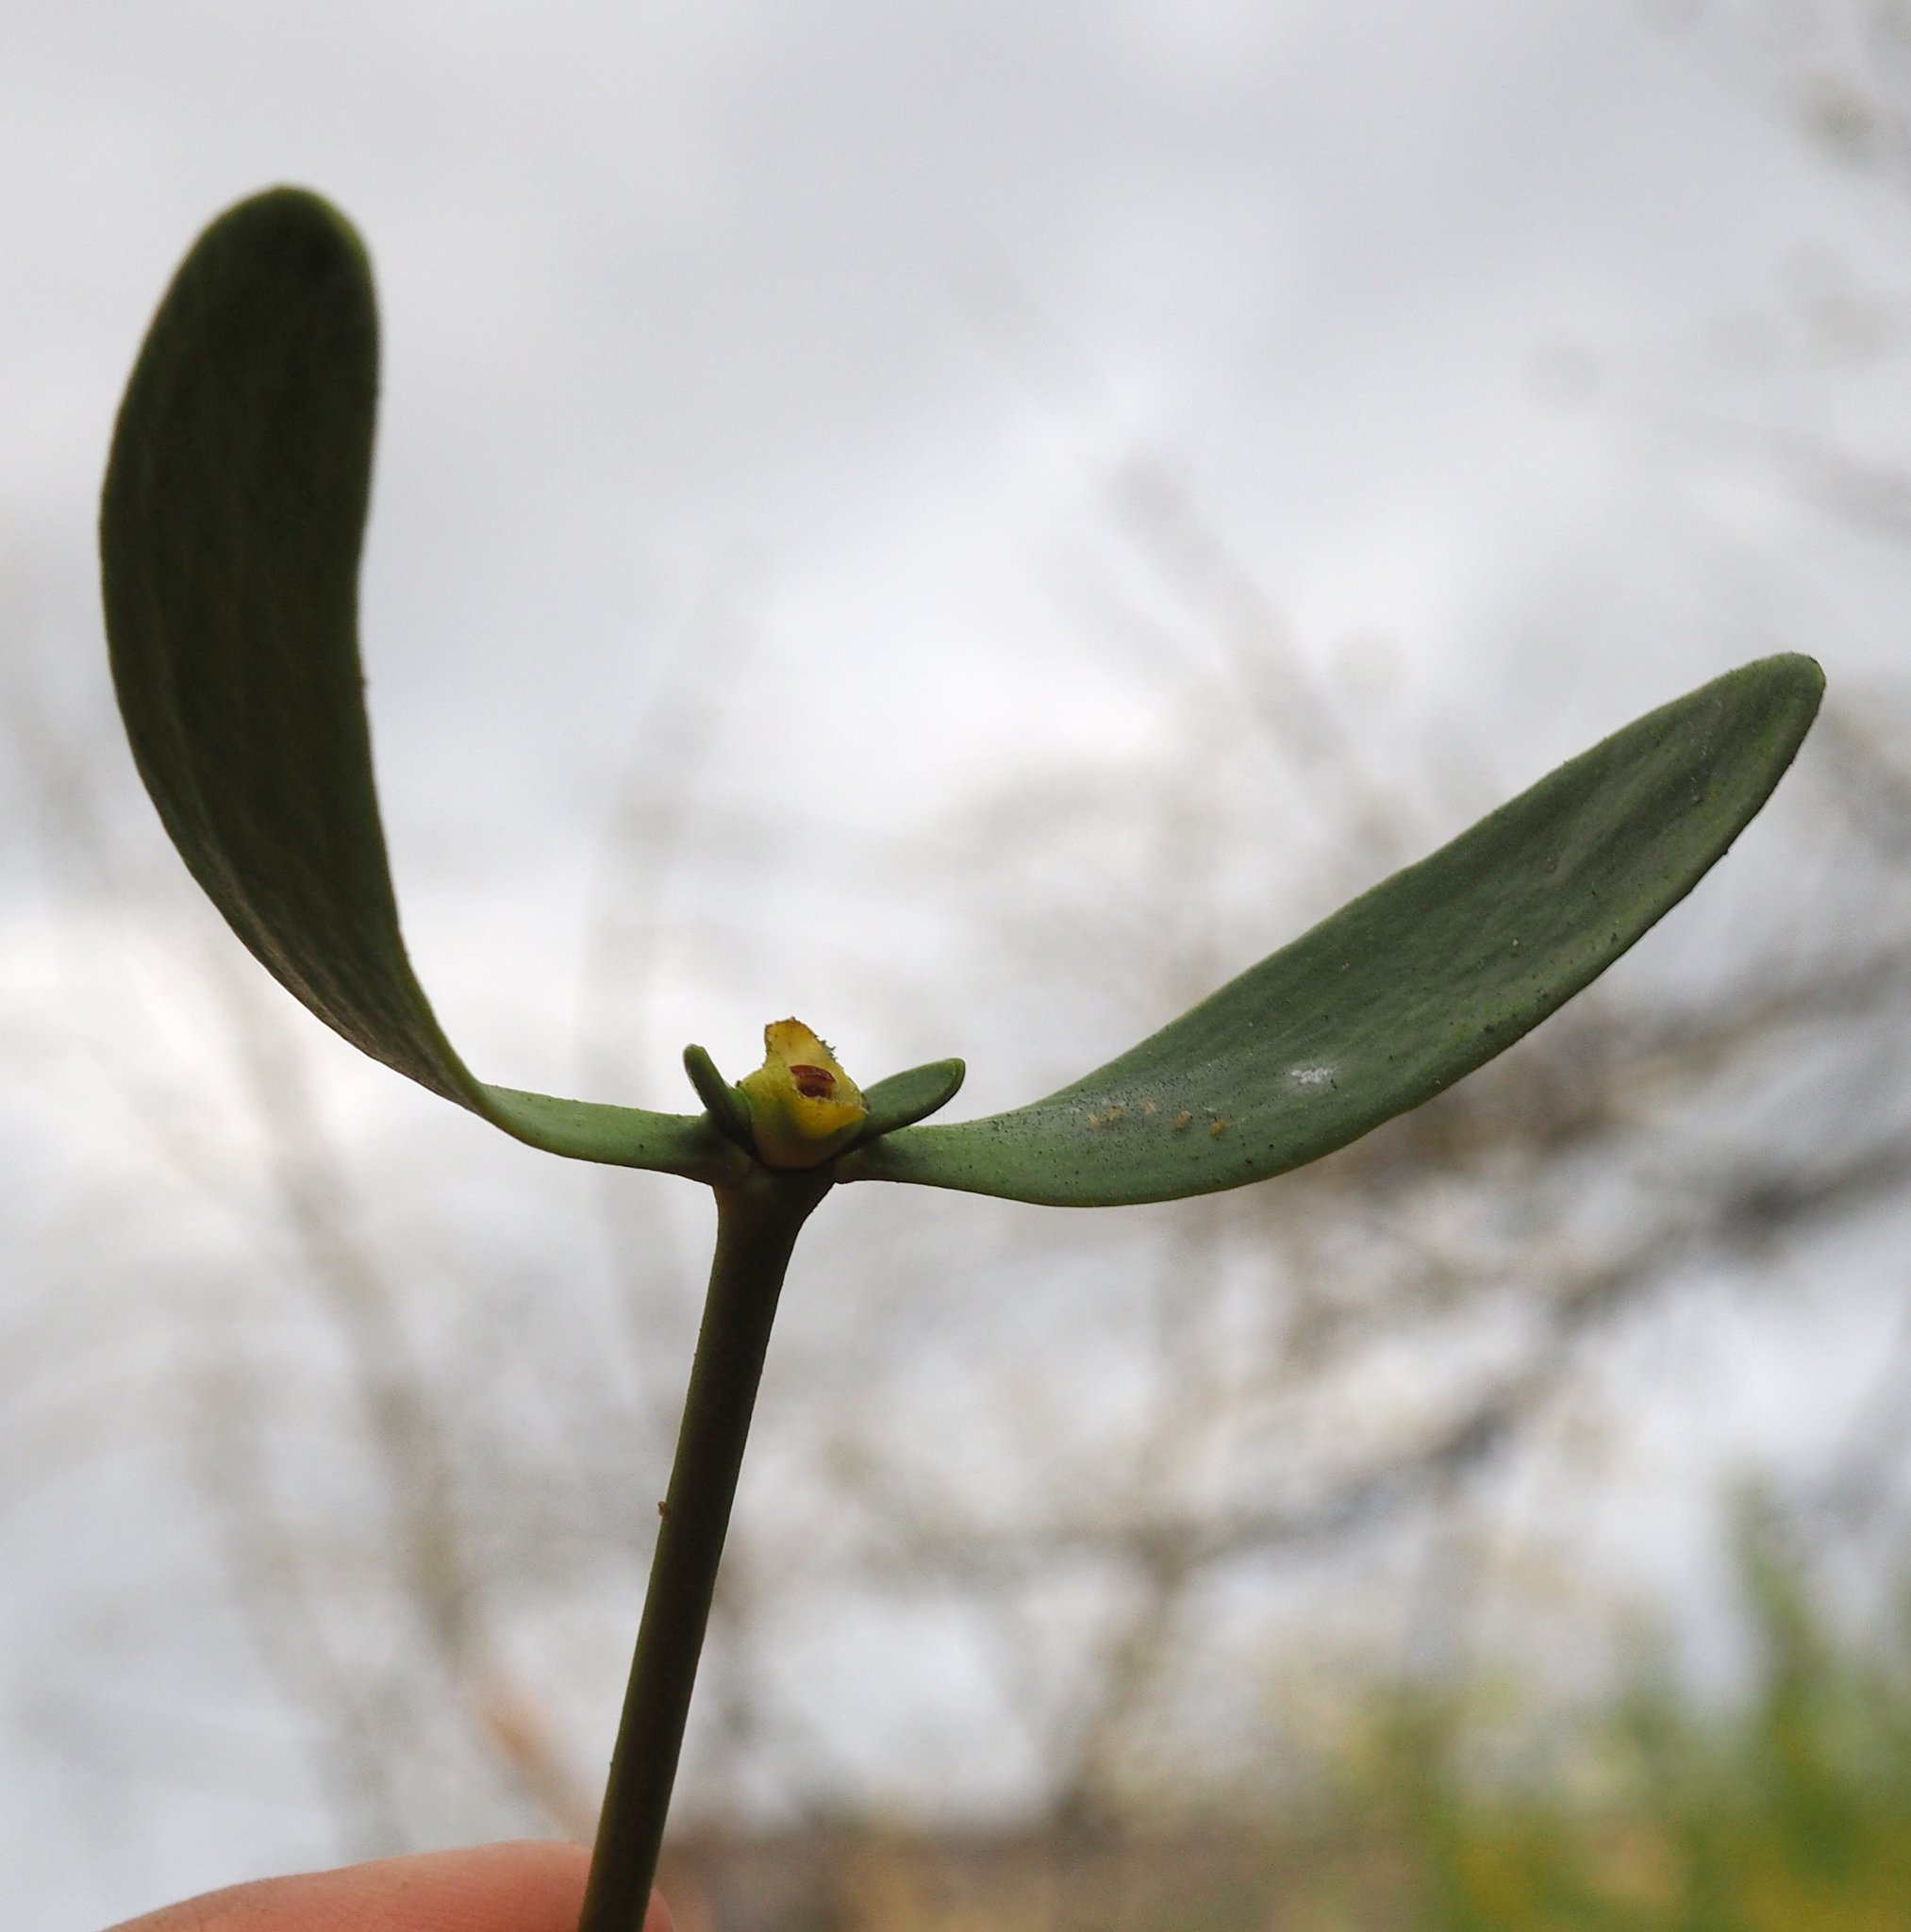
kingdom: Plantae
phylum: Tracheophyta
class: Magnoliopsida
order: Santalales
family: Viscaceae
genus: Viscum
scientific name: Viscum album
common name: Mistletoe
